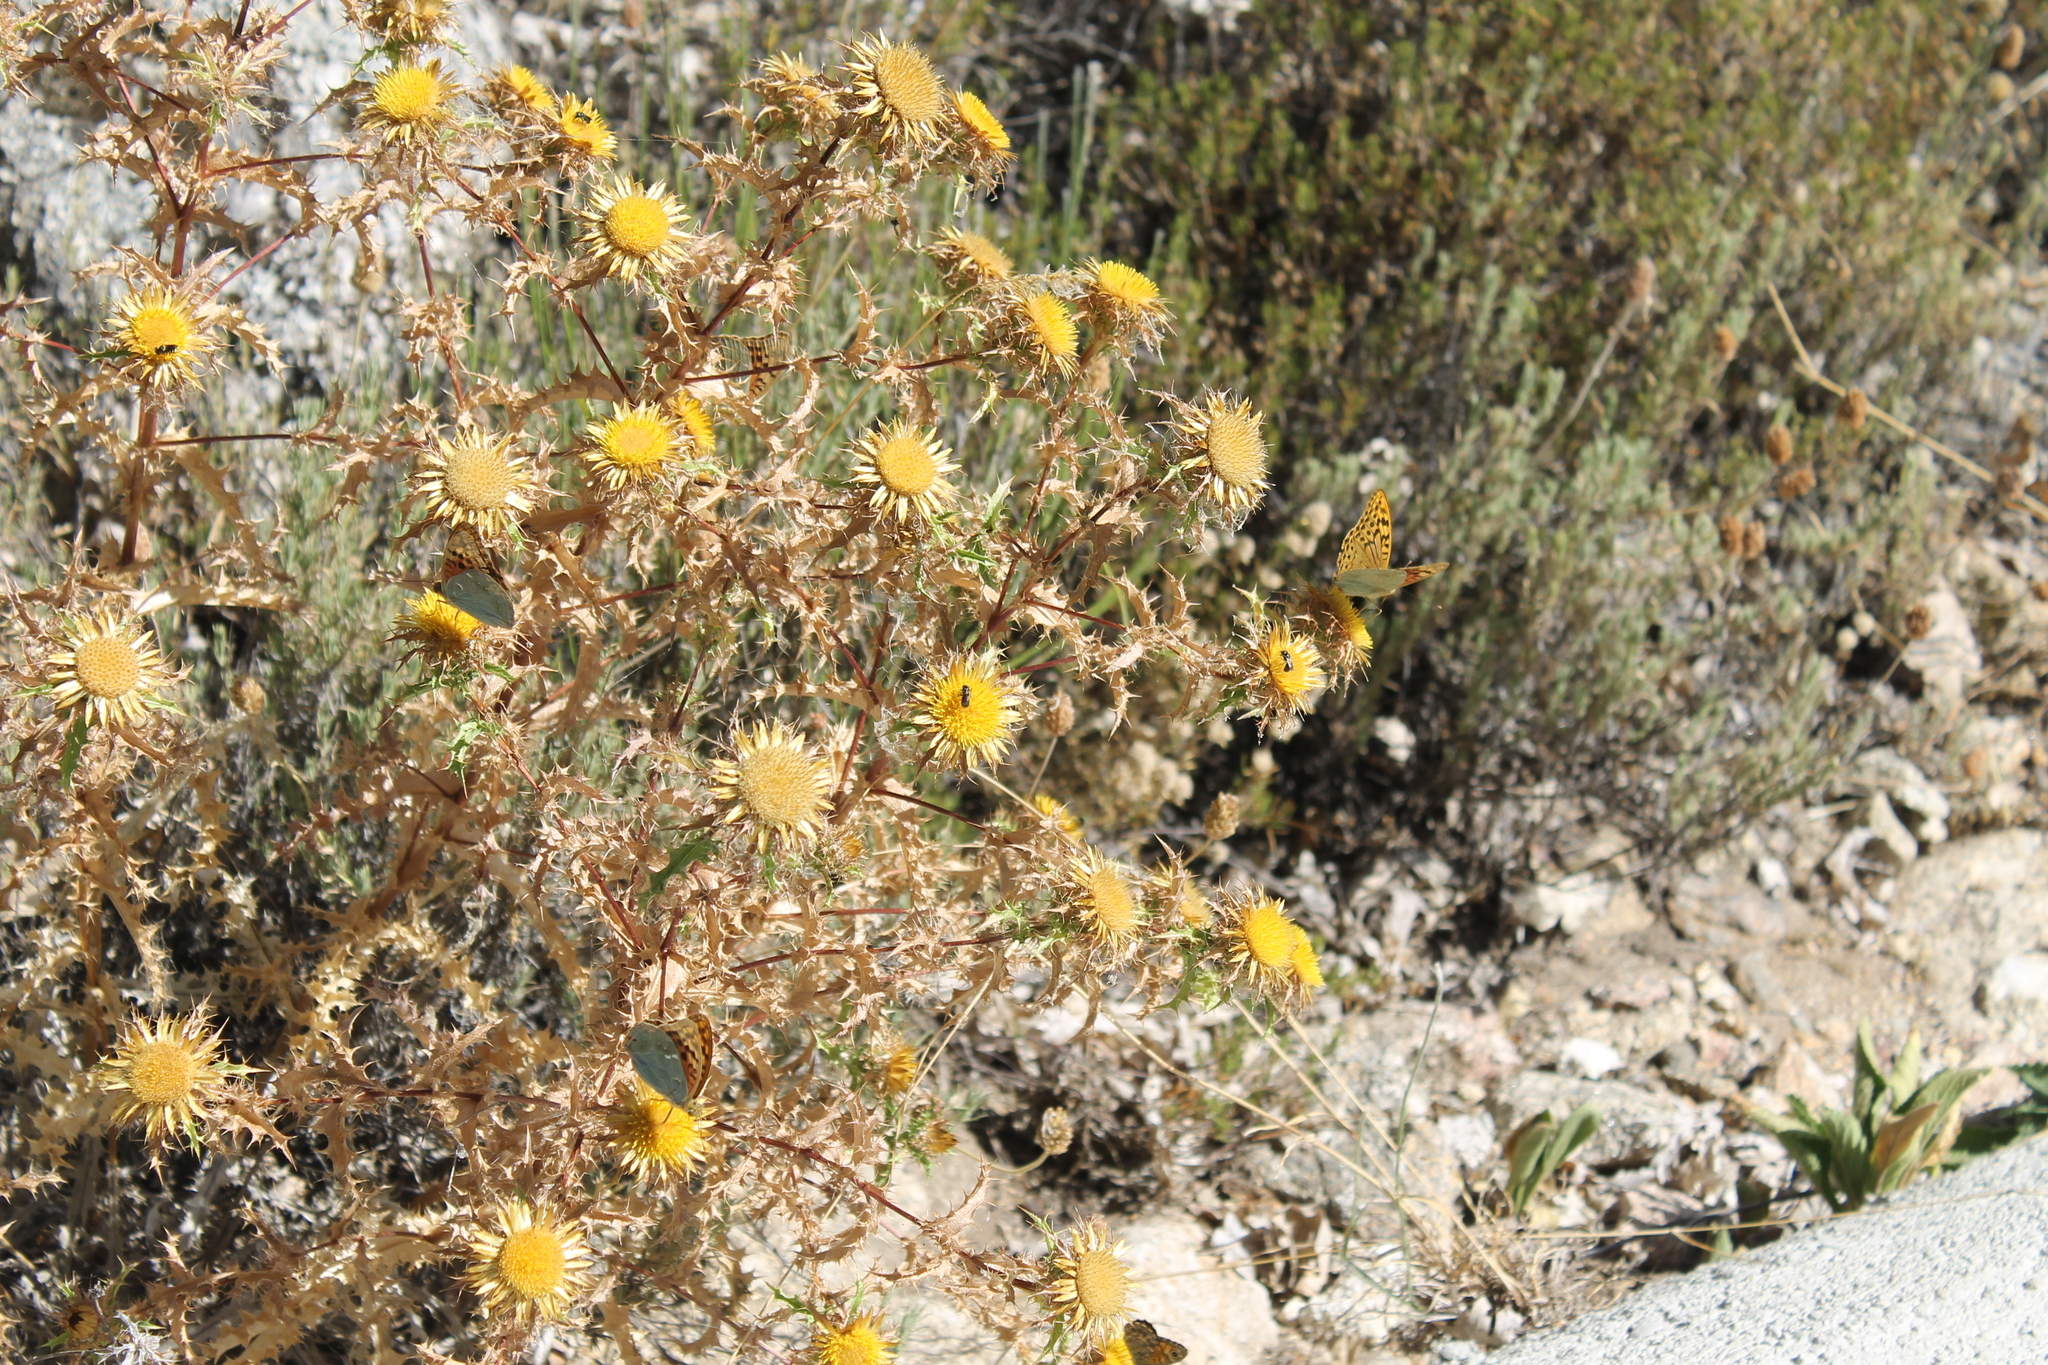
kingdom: Plantae
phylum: Tracheophyta
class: Magnoliopsida
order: Asterales
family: Asteraceae
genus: Carlina
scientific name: Carlina hispanica
